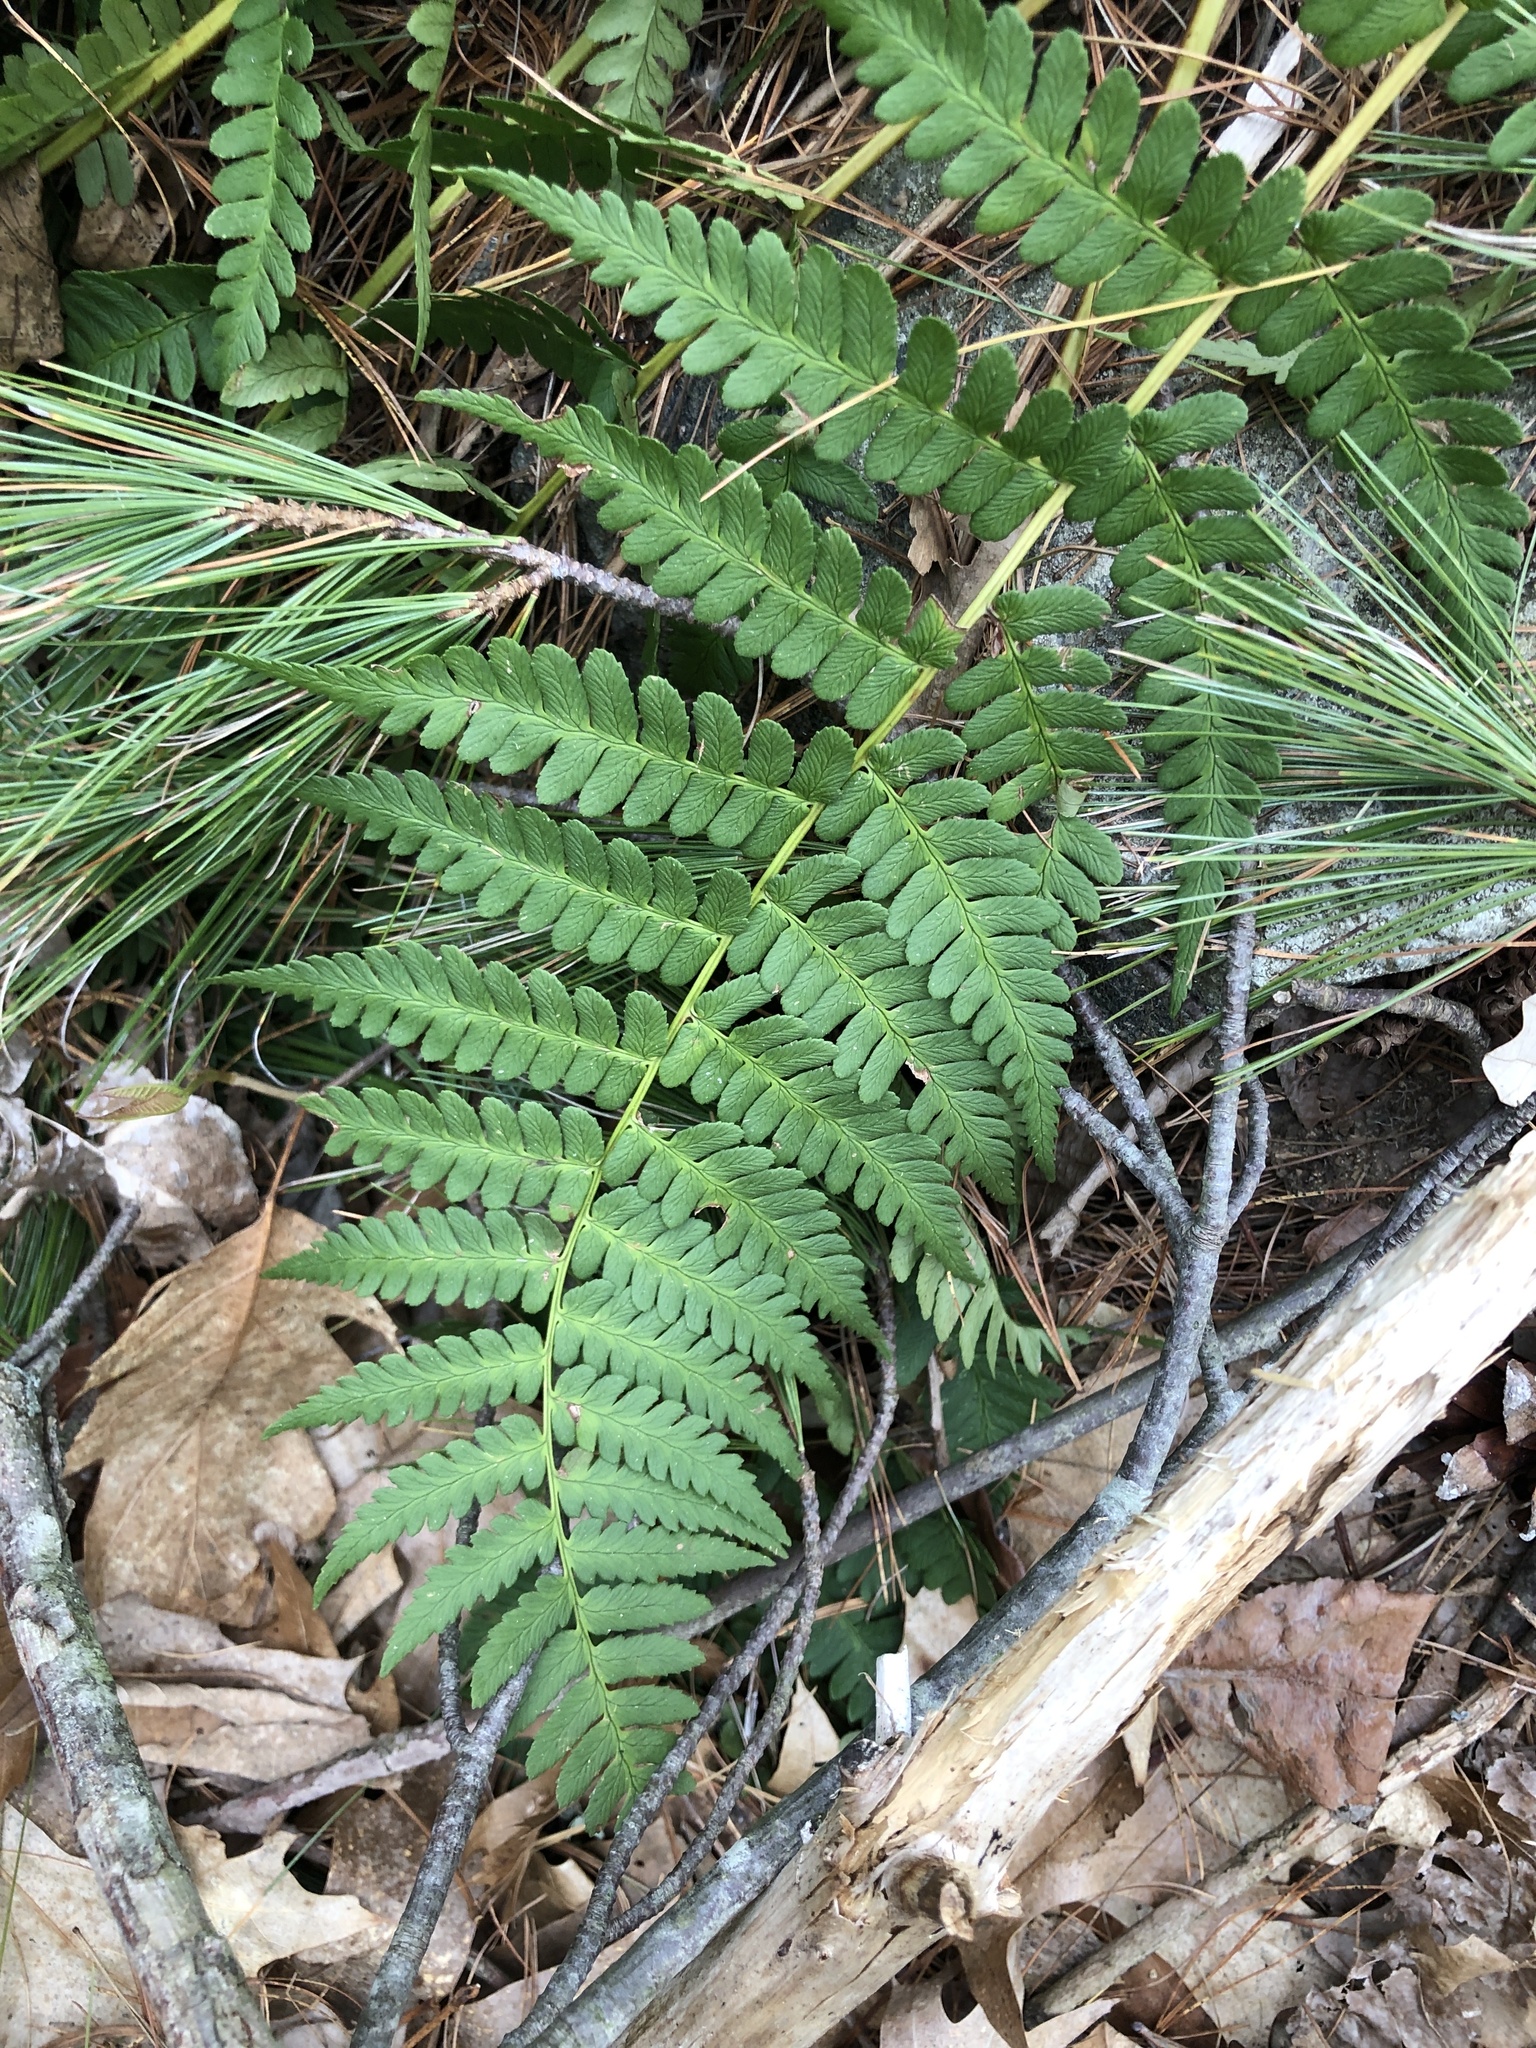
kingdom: Plantae
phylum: Tracheophyta
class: Polypodiopsida
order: Polypodiales
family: Dryopteridaceae
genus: Dryopteris
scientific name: Dryopteris marginalis
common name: Marginal wood fern
